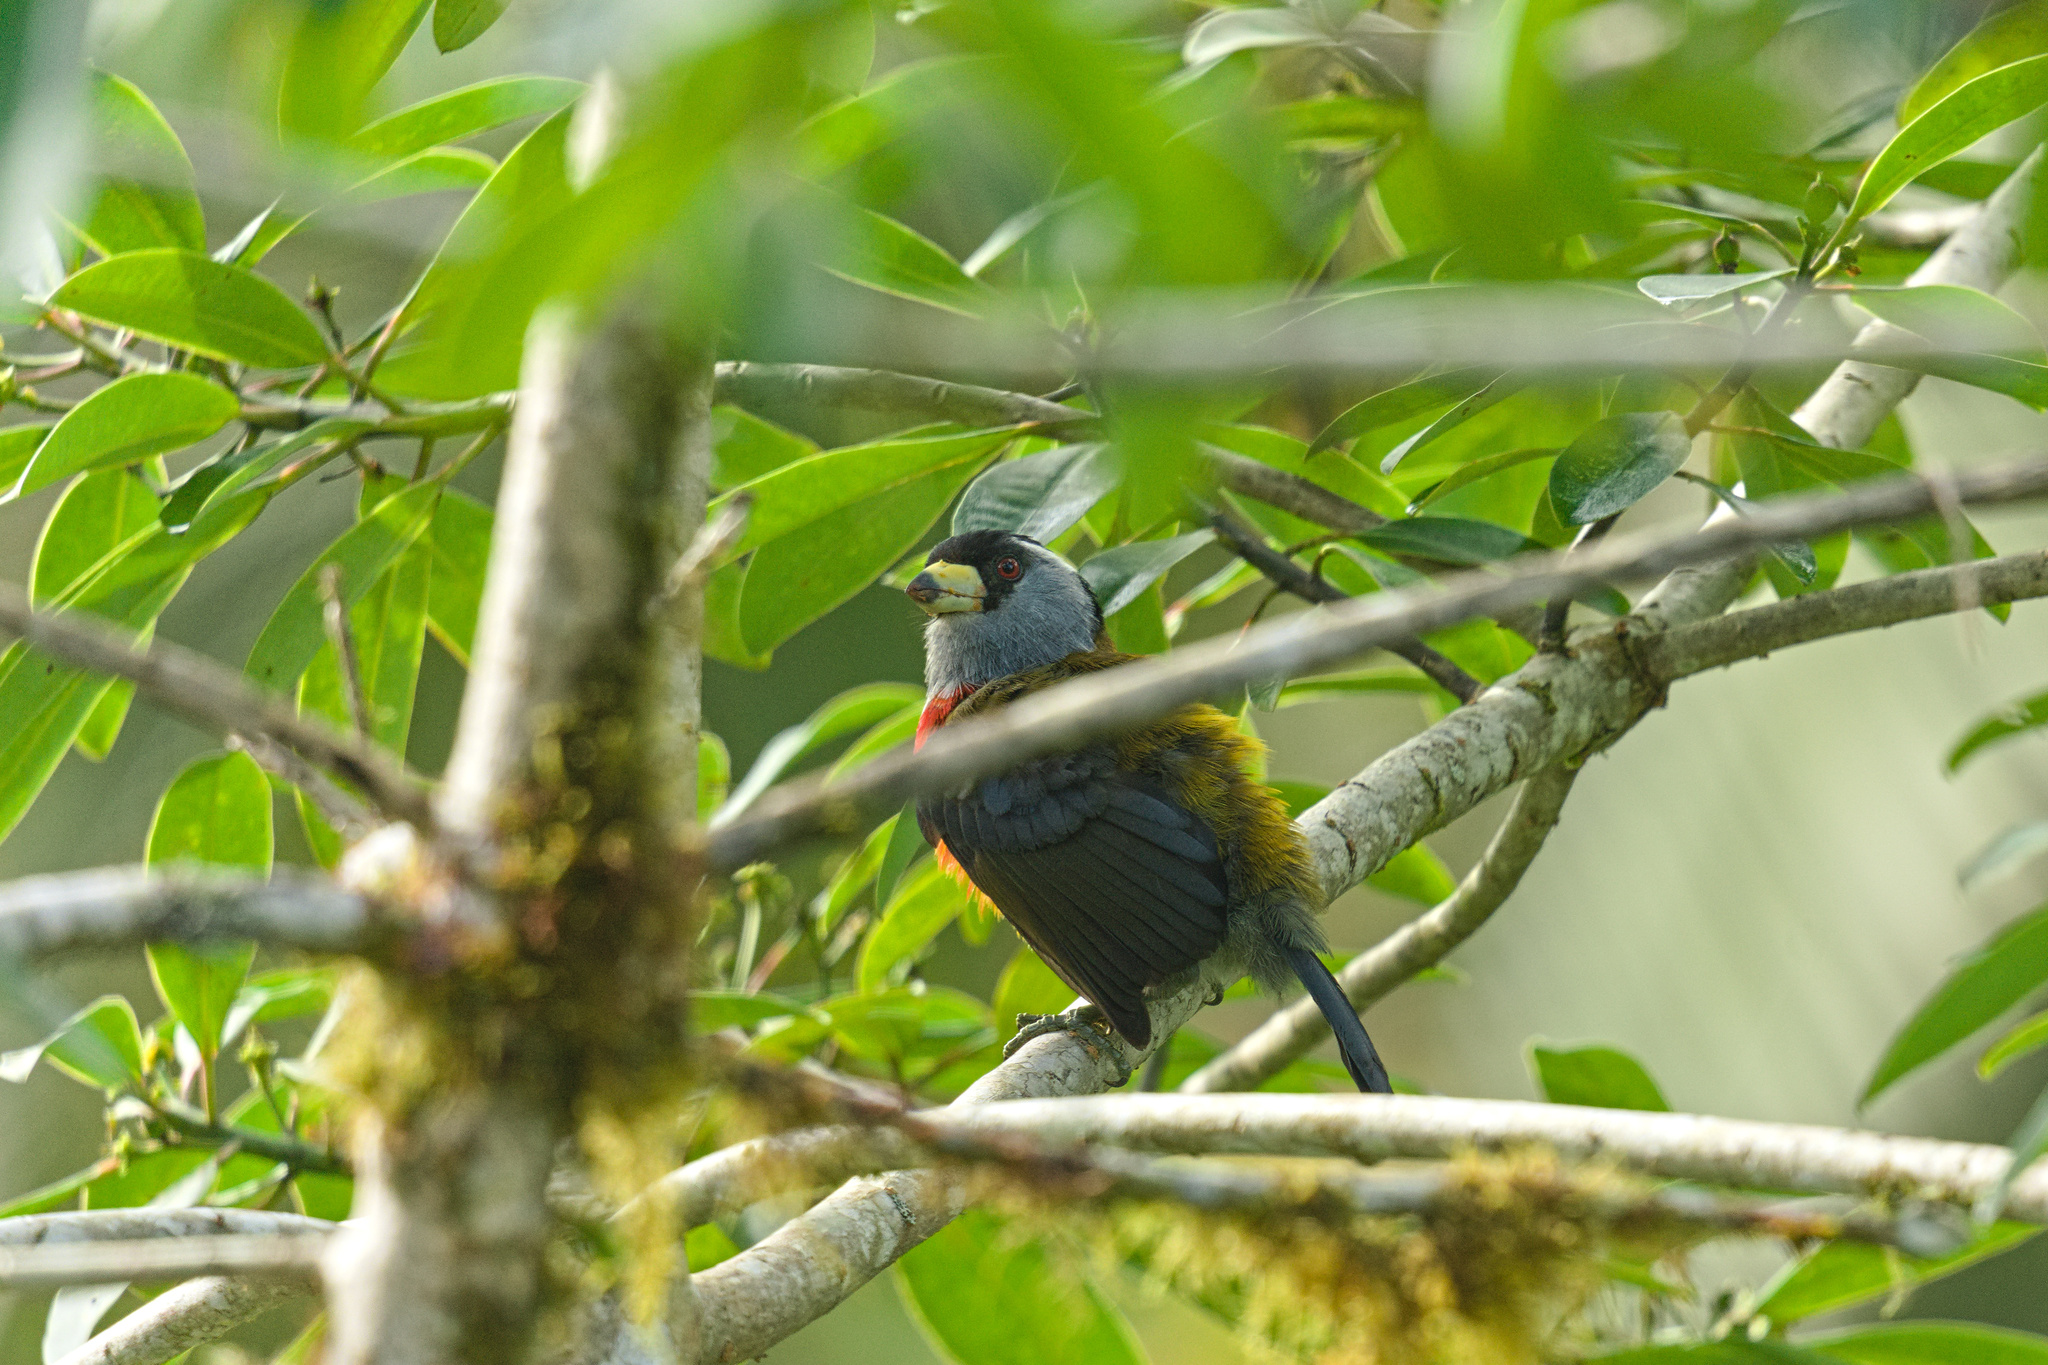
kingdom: Animalia
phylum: Chordata
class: Aves
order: Piciformes
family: Semnornithidae
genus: Semnornis
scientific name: Semnornis ramphastinus
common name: Toucan barbet
